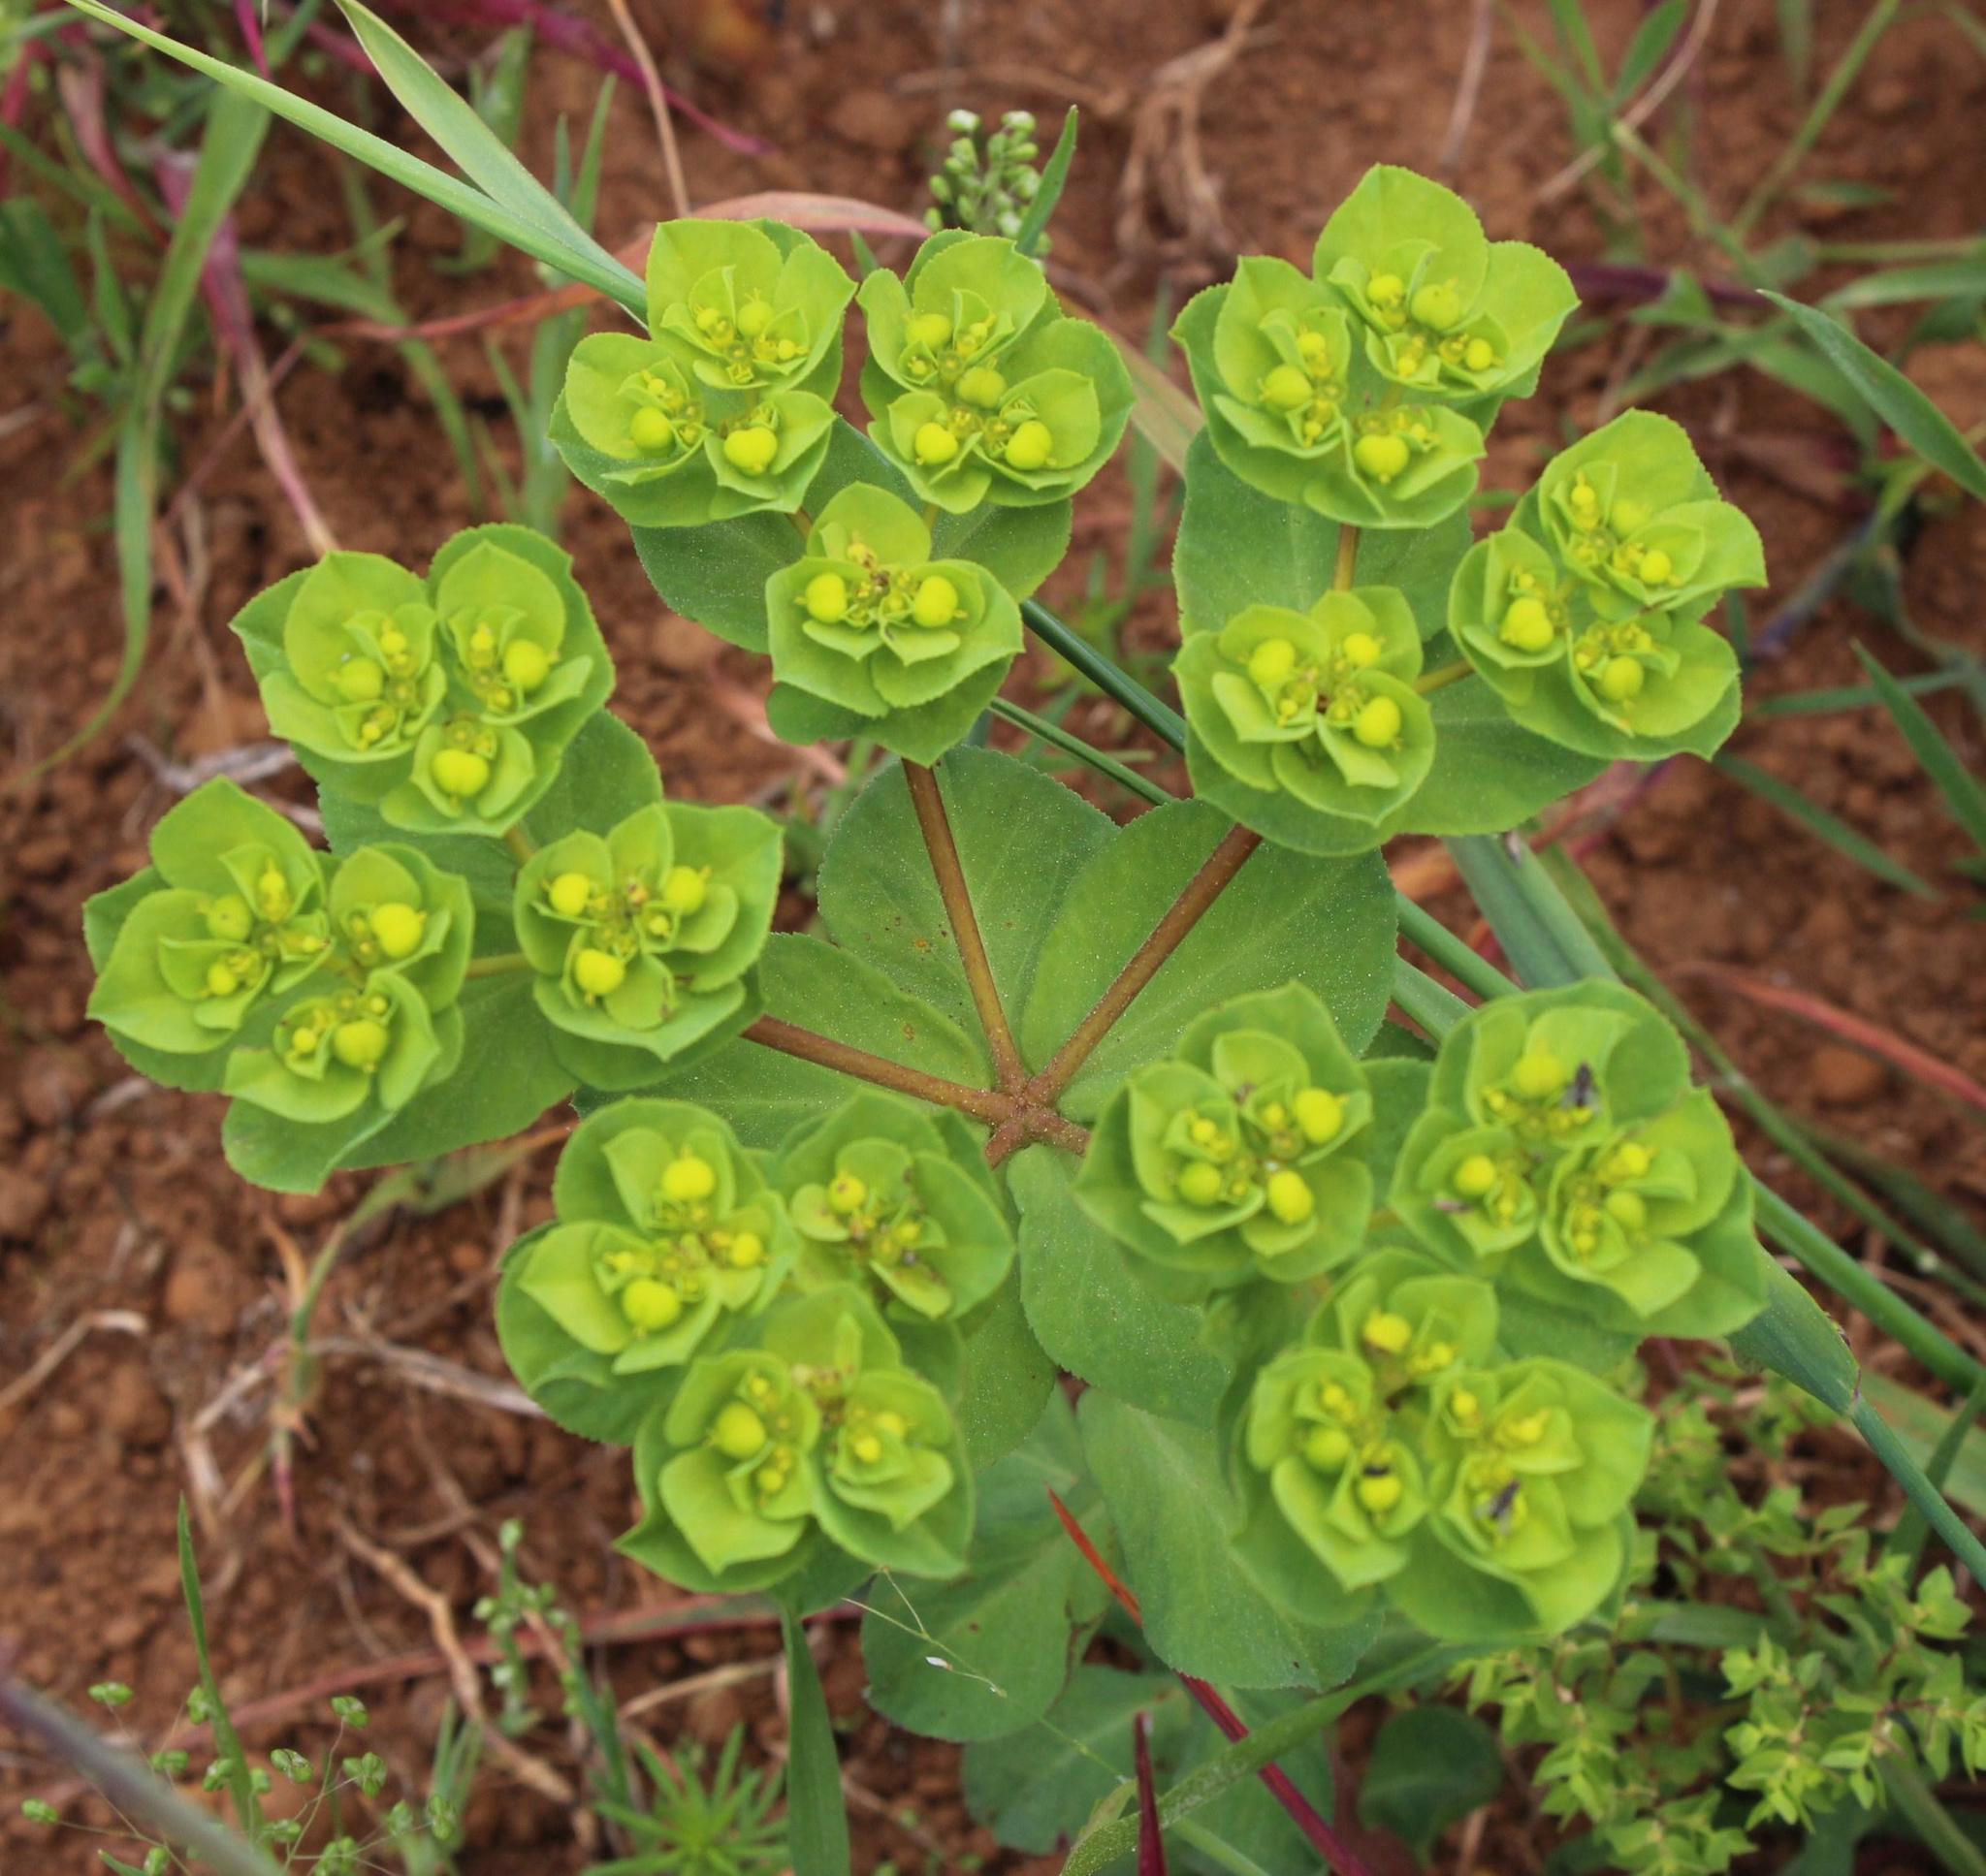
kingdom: Plantae
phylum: Tracheophyta
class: Magnoliopsida
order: Malpighiales
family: Euphorbiaceae
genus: Euphorbia
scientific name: Euphorbia helioscopia
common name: Sun spurge
